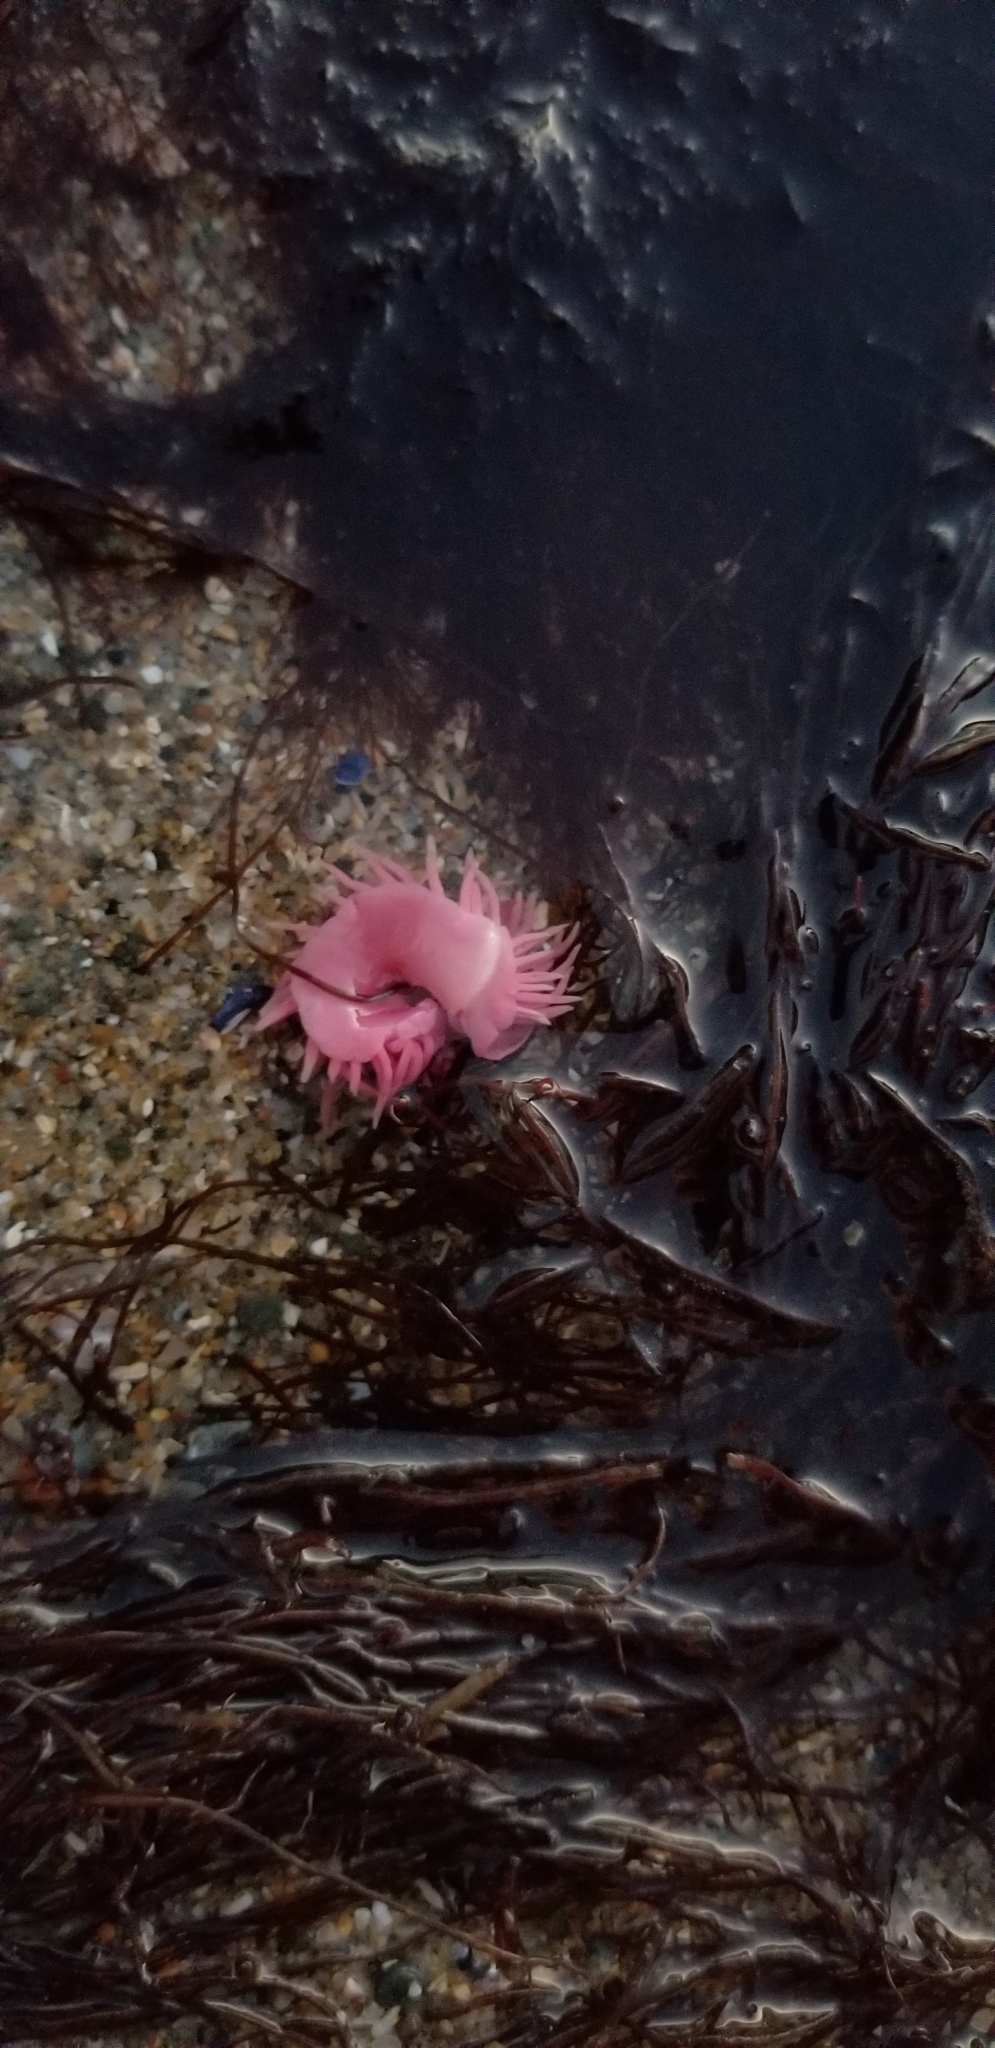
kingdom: Animalia
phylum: Mollusca
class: Gastropoda
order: Nudibranchia
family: Goniodorididae
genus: Okenia
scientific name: Okenia
